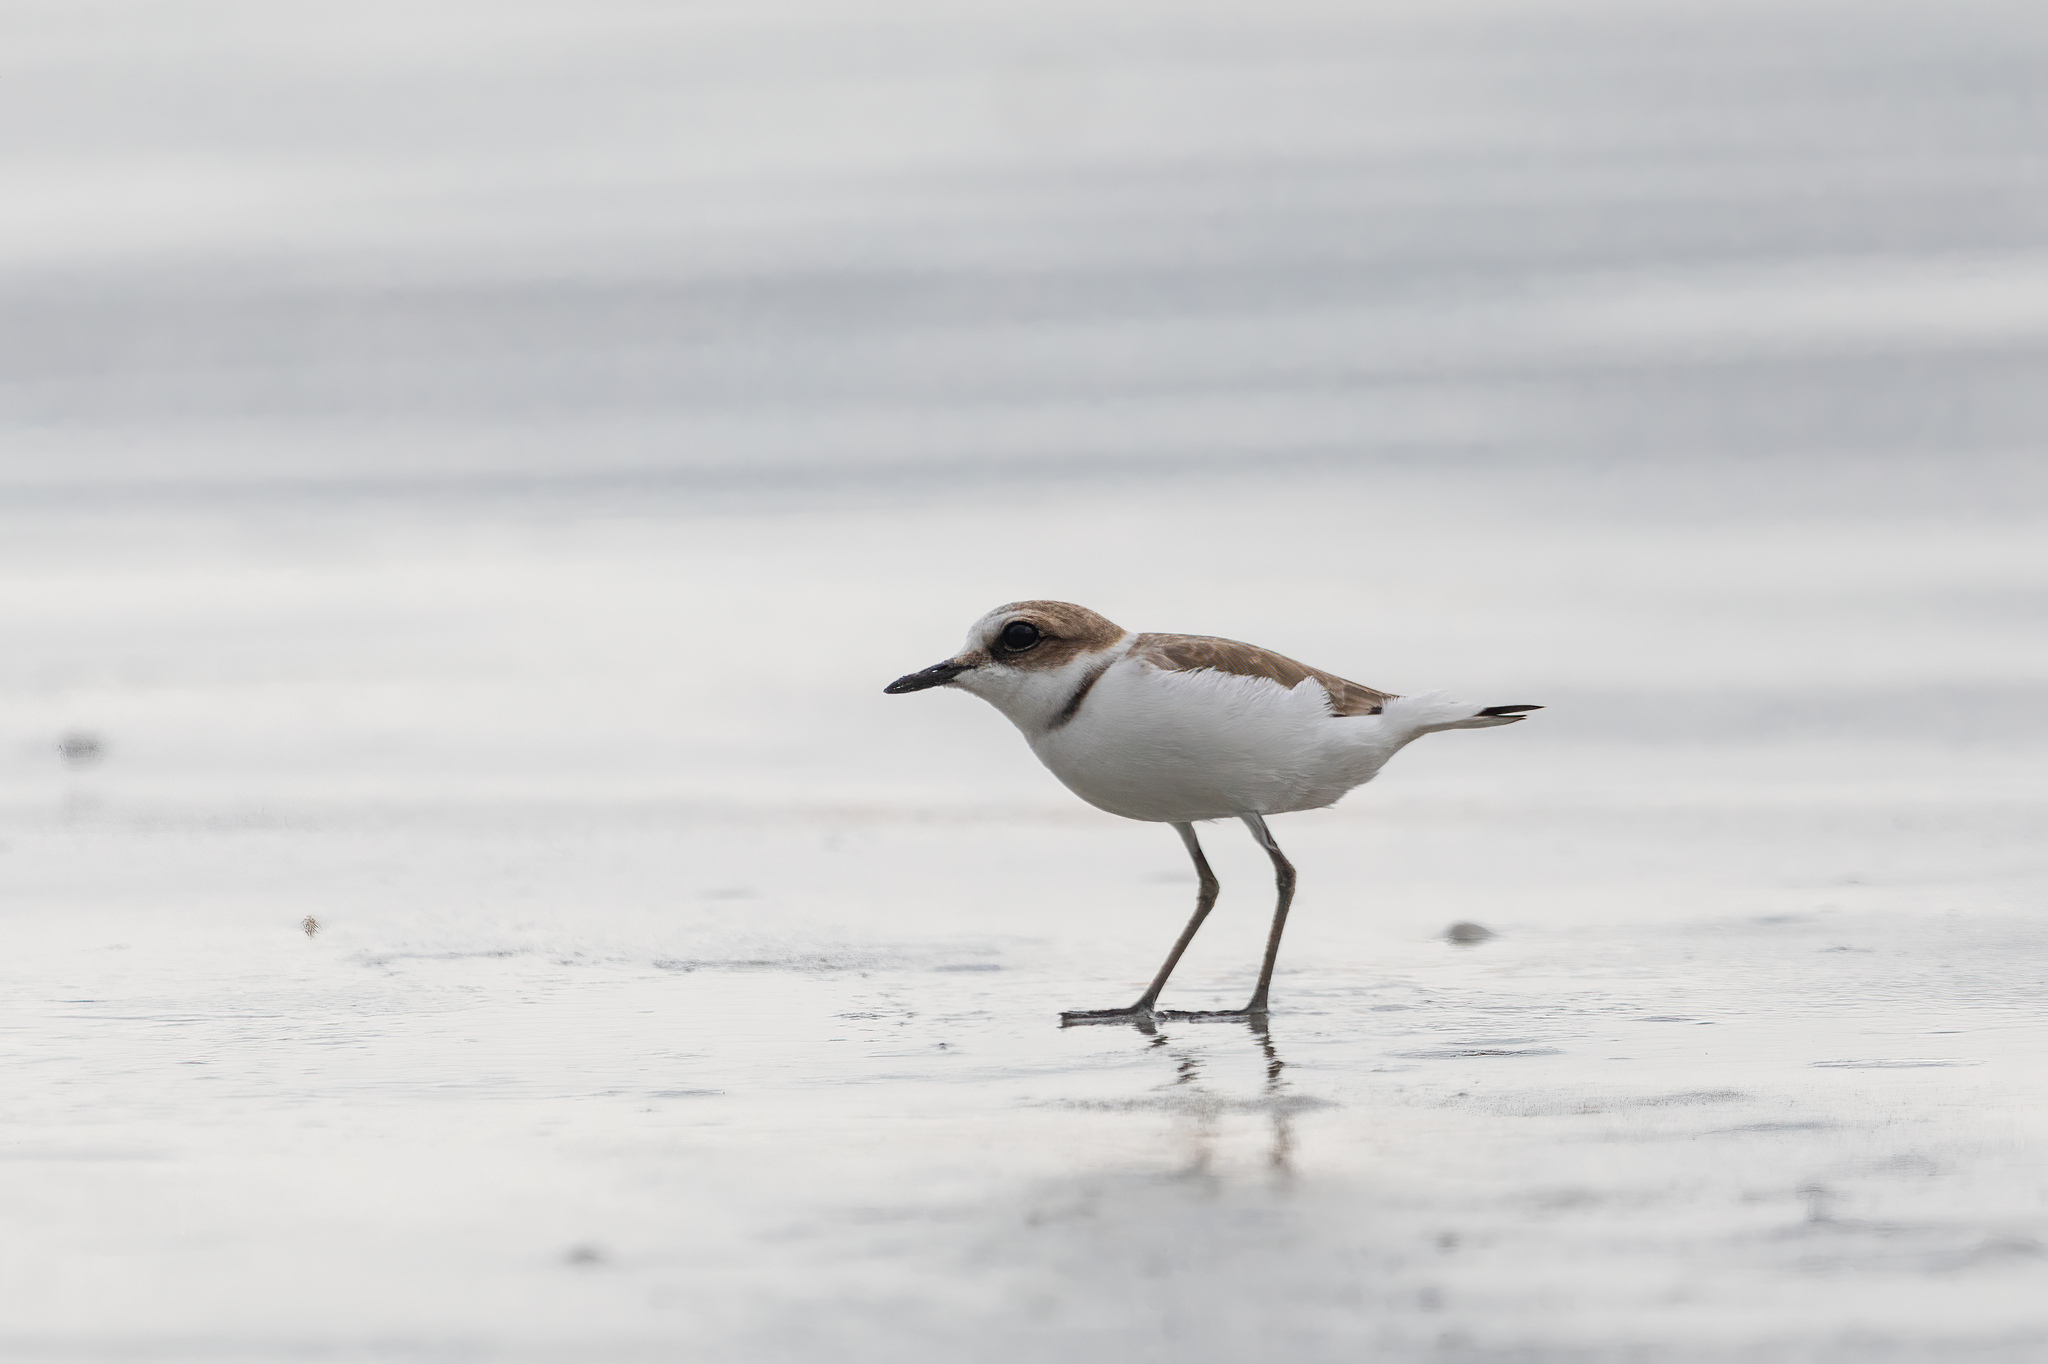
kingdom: Animalia
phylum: Chordata
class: Aves
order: Charadriiformes
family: Charadriidae
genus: Charadrius
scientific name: Charadrius alexandrinus
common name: Kentish plover
